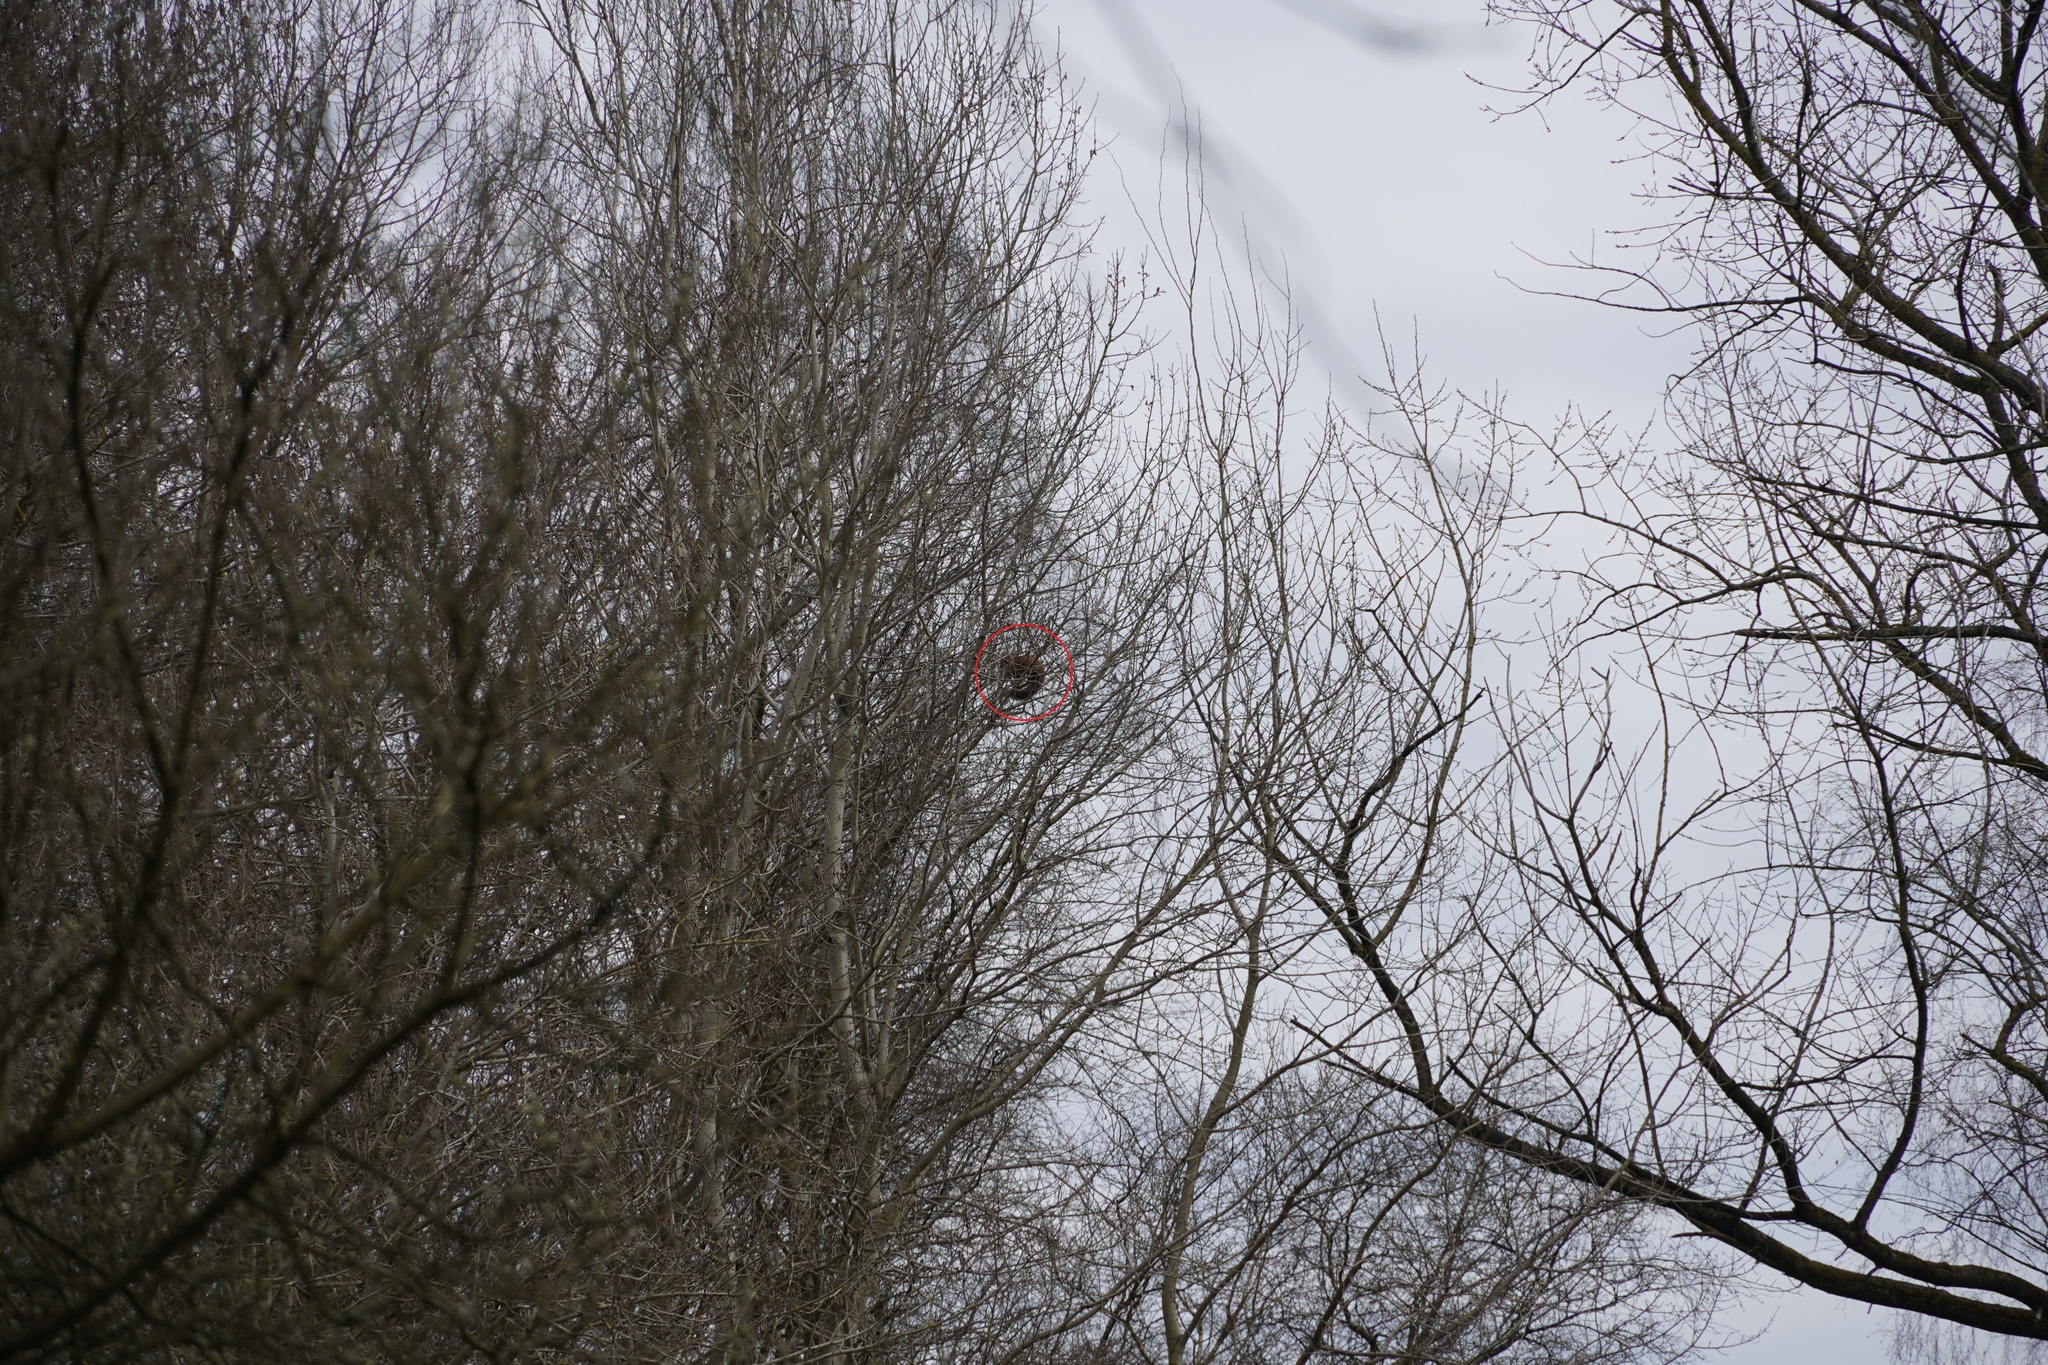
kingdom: Animalia
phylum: Chordata
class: Mammalia
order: Carnivora
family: Mustelidae
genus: Martes
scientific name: Martes martes
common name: European pine marten
